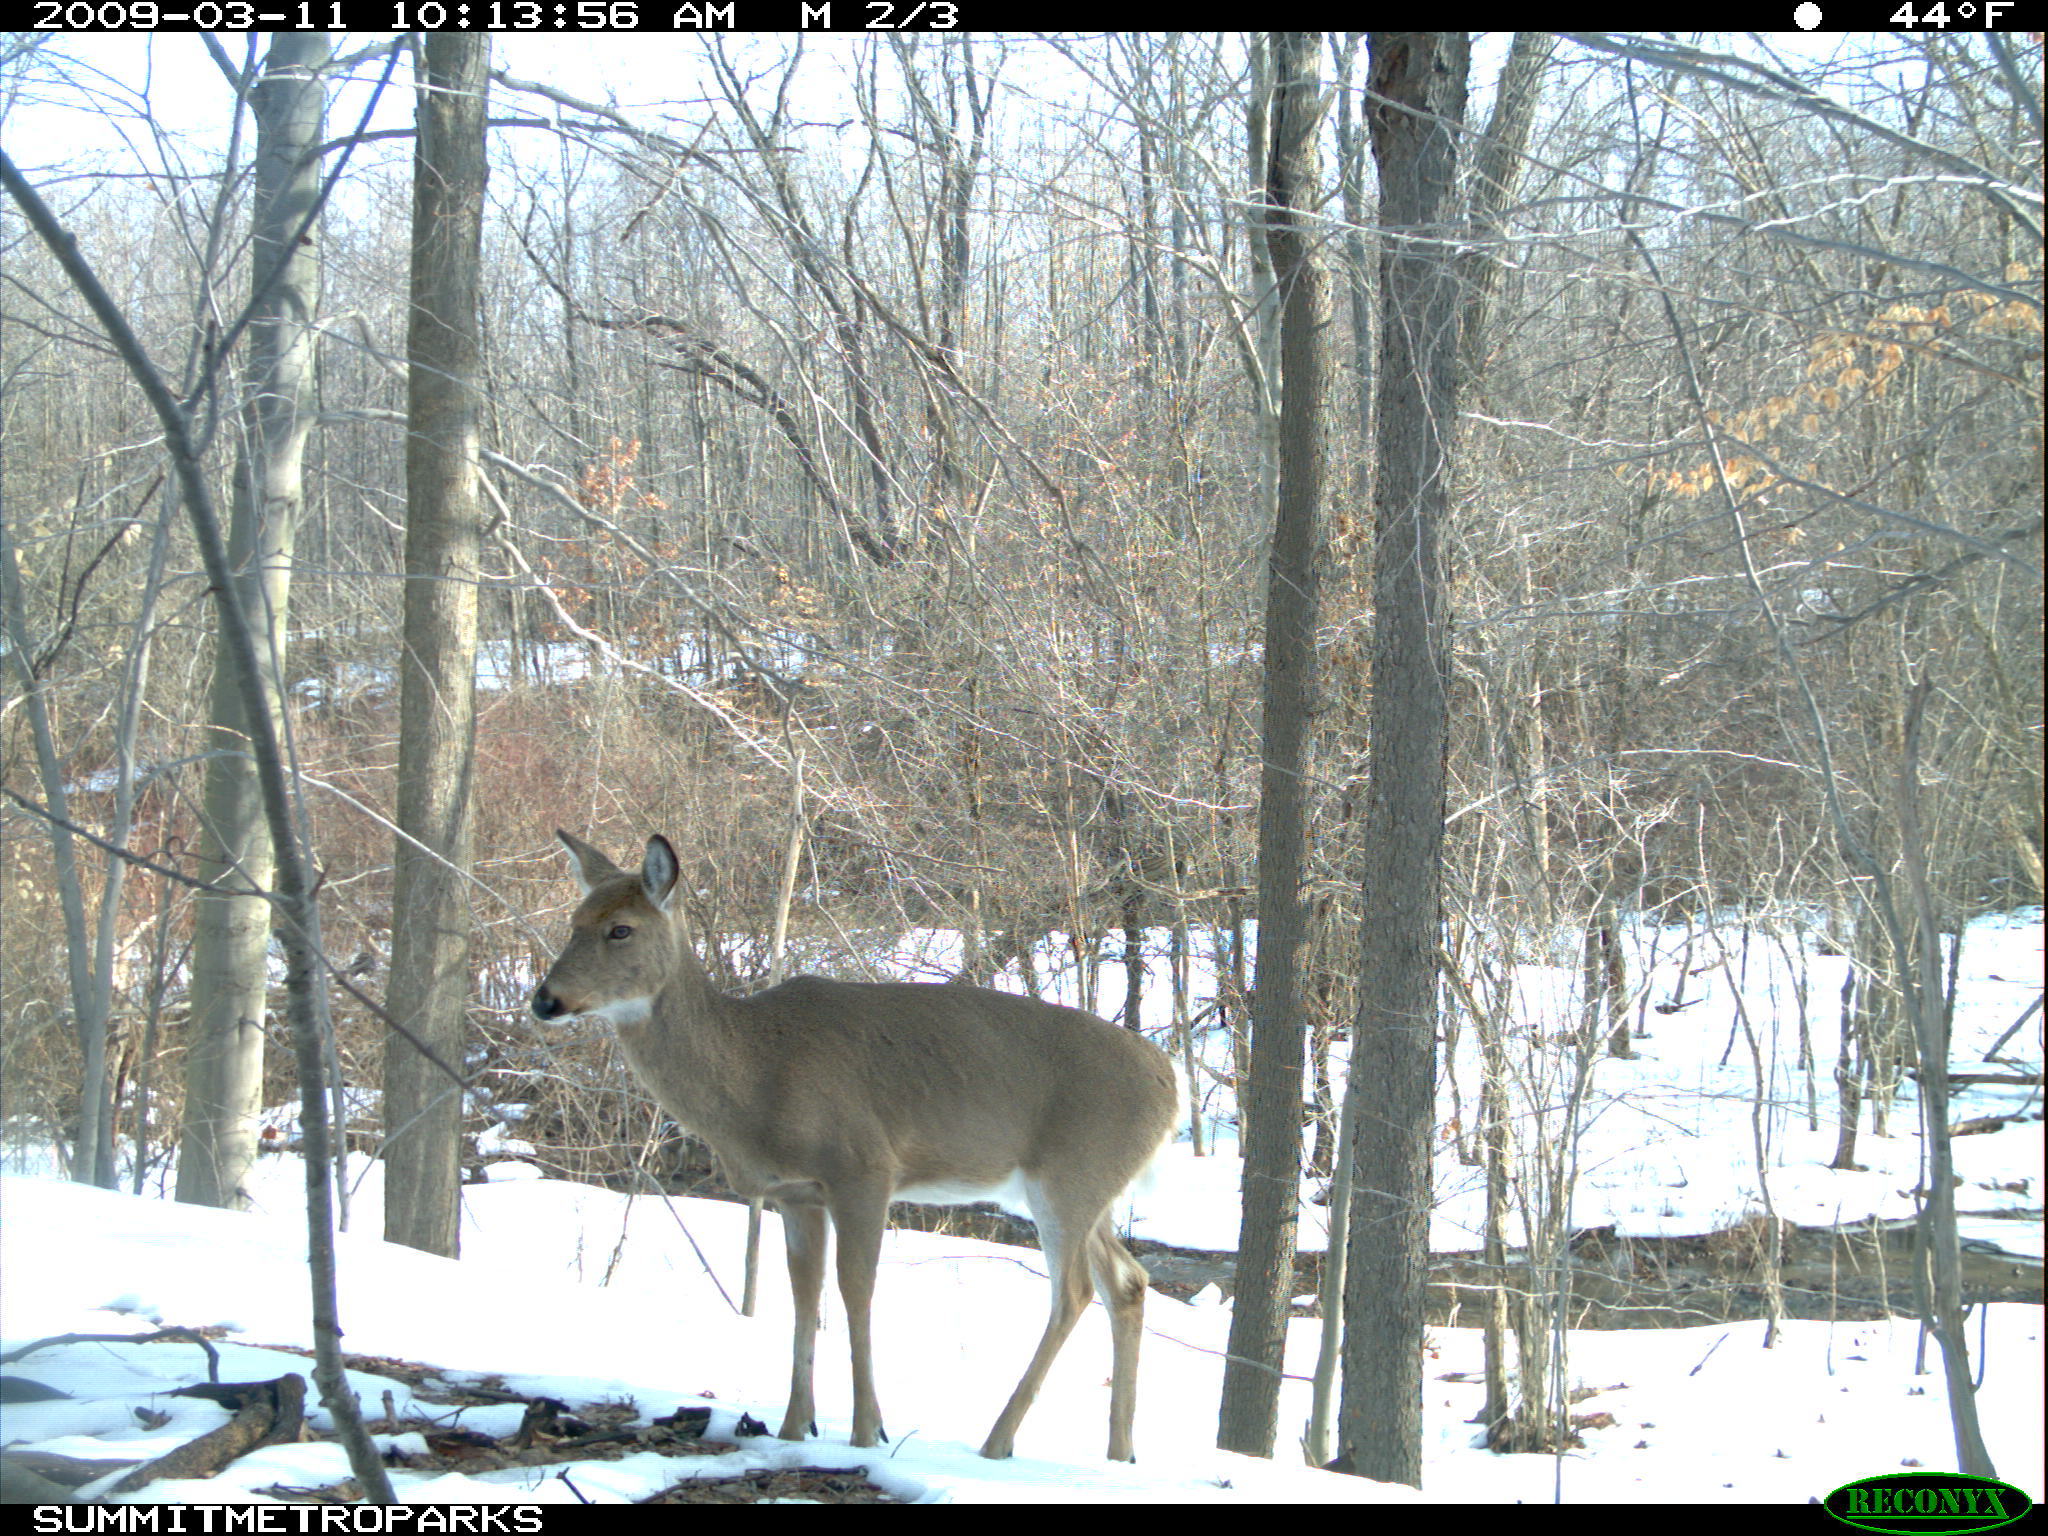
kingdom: Animalia
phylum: Chordata
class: Mammalia
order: Artiodactyla
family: Cervidae
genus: Odocoileus
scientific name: Odocoileus virginianus
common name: White-tailed deer
